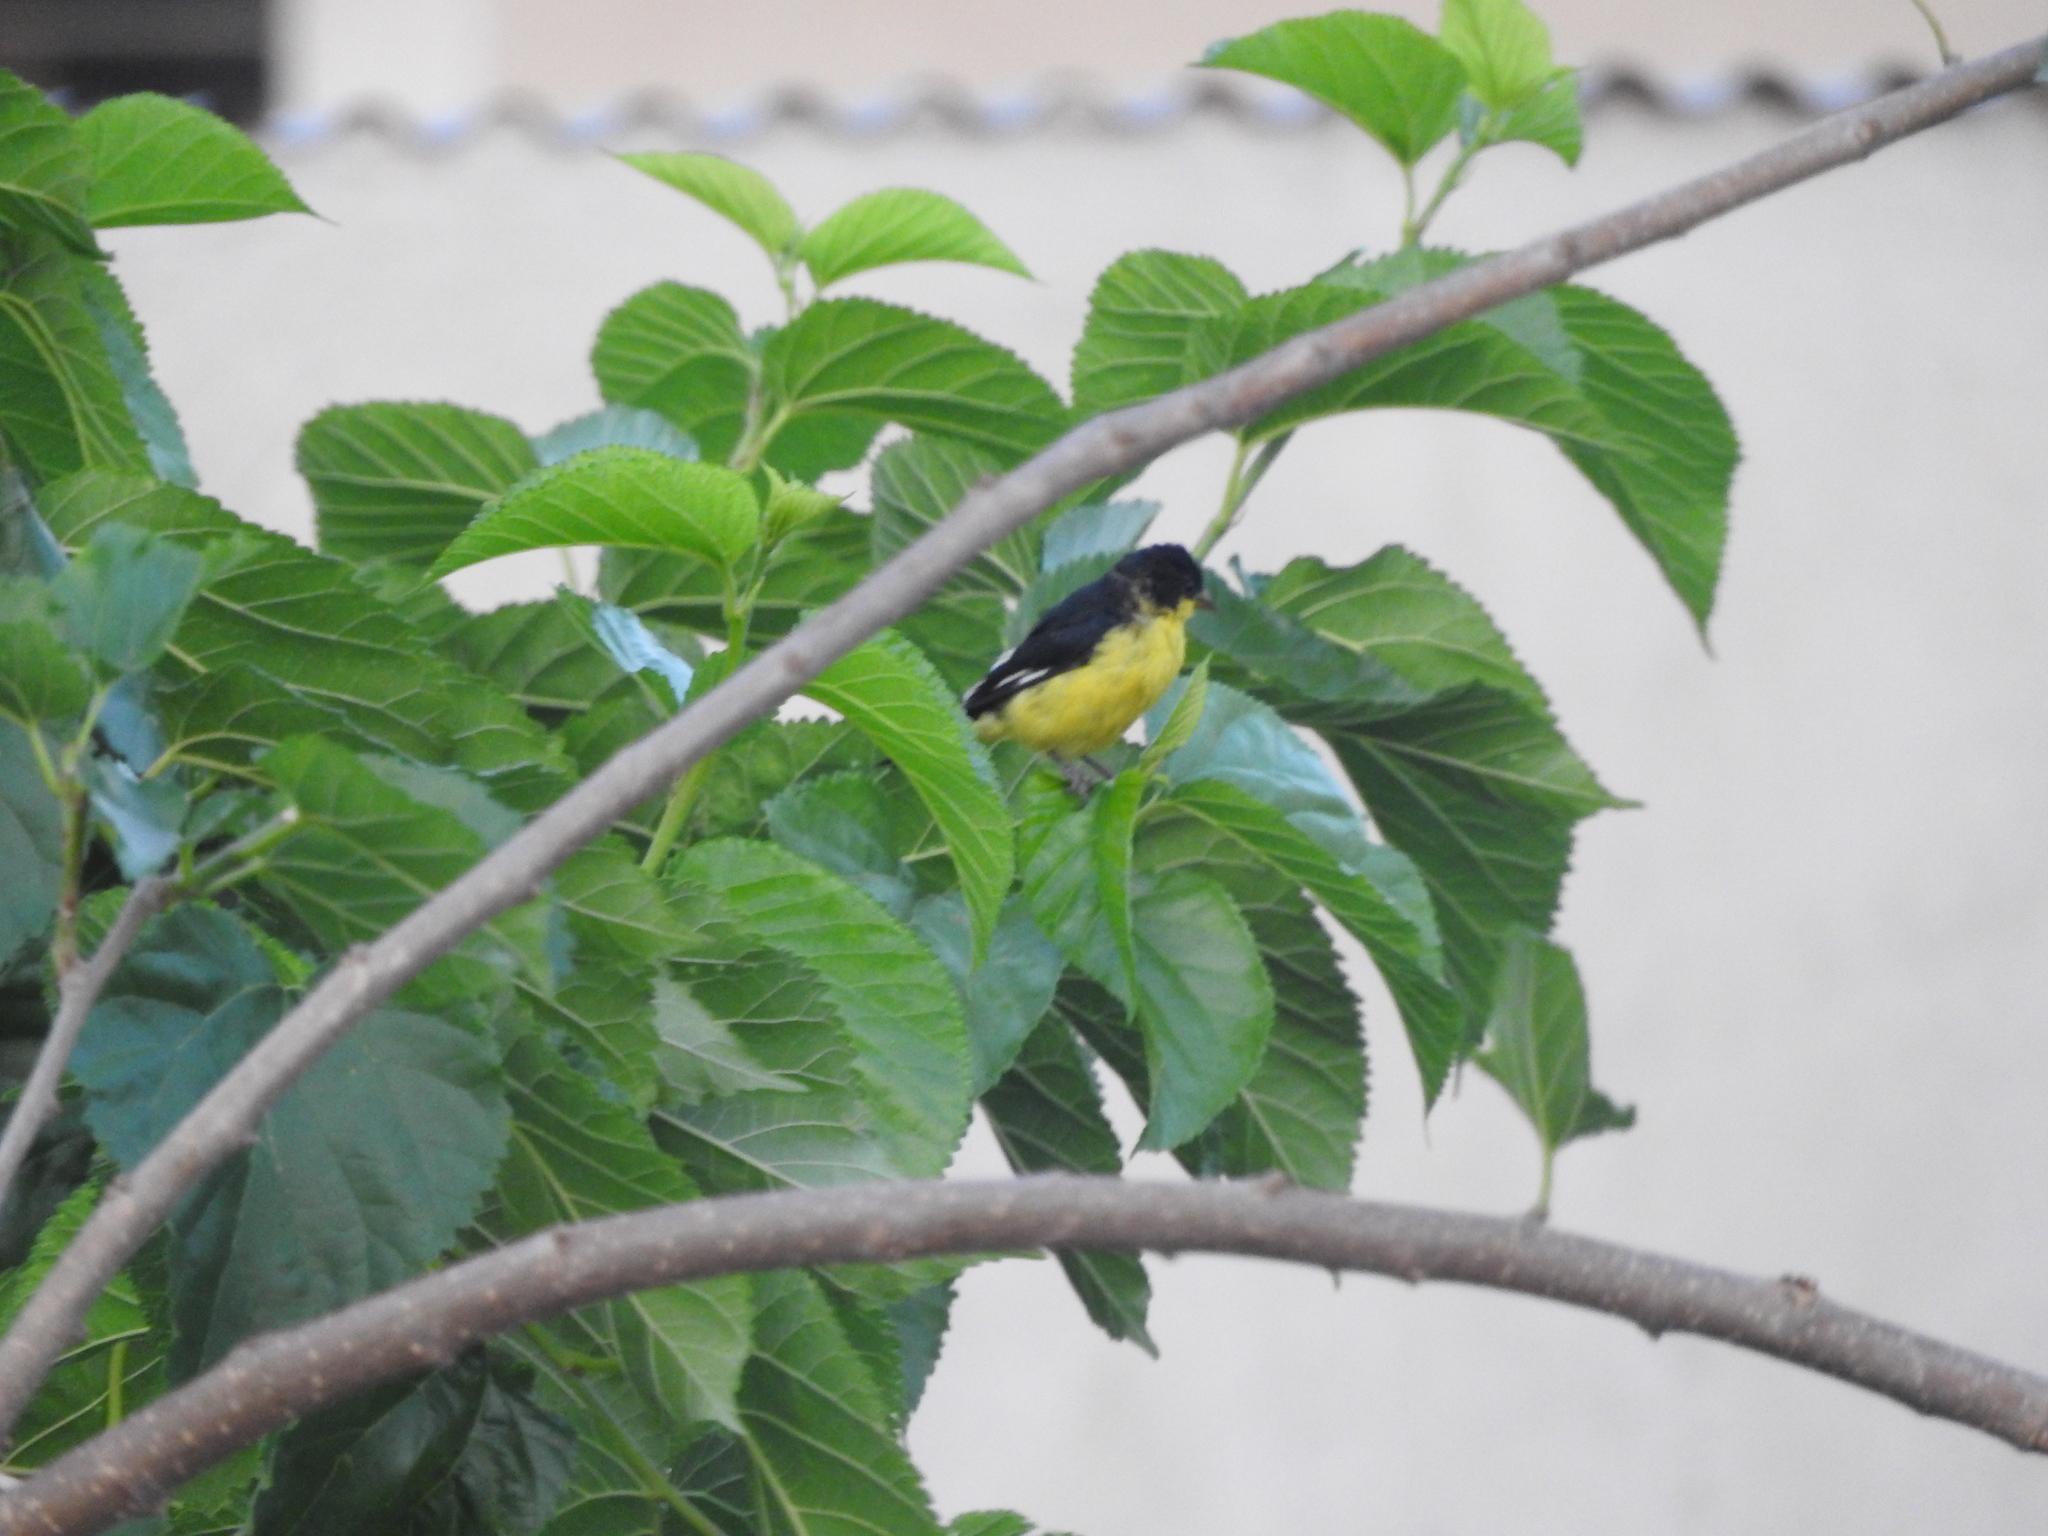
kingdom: Animalia
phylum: Chordata
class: Aves
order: Passeriformes
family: Fringillidae
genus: Spinus
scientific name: Spinus psaltria
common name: Lesser goldfinch
